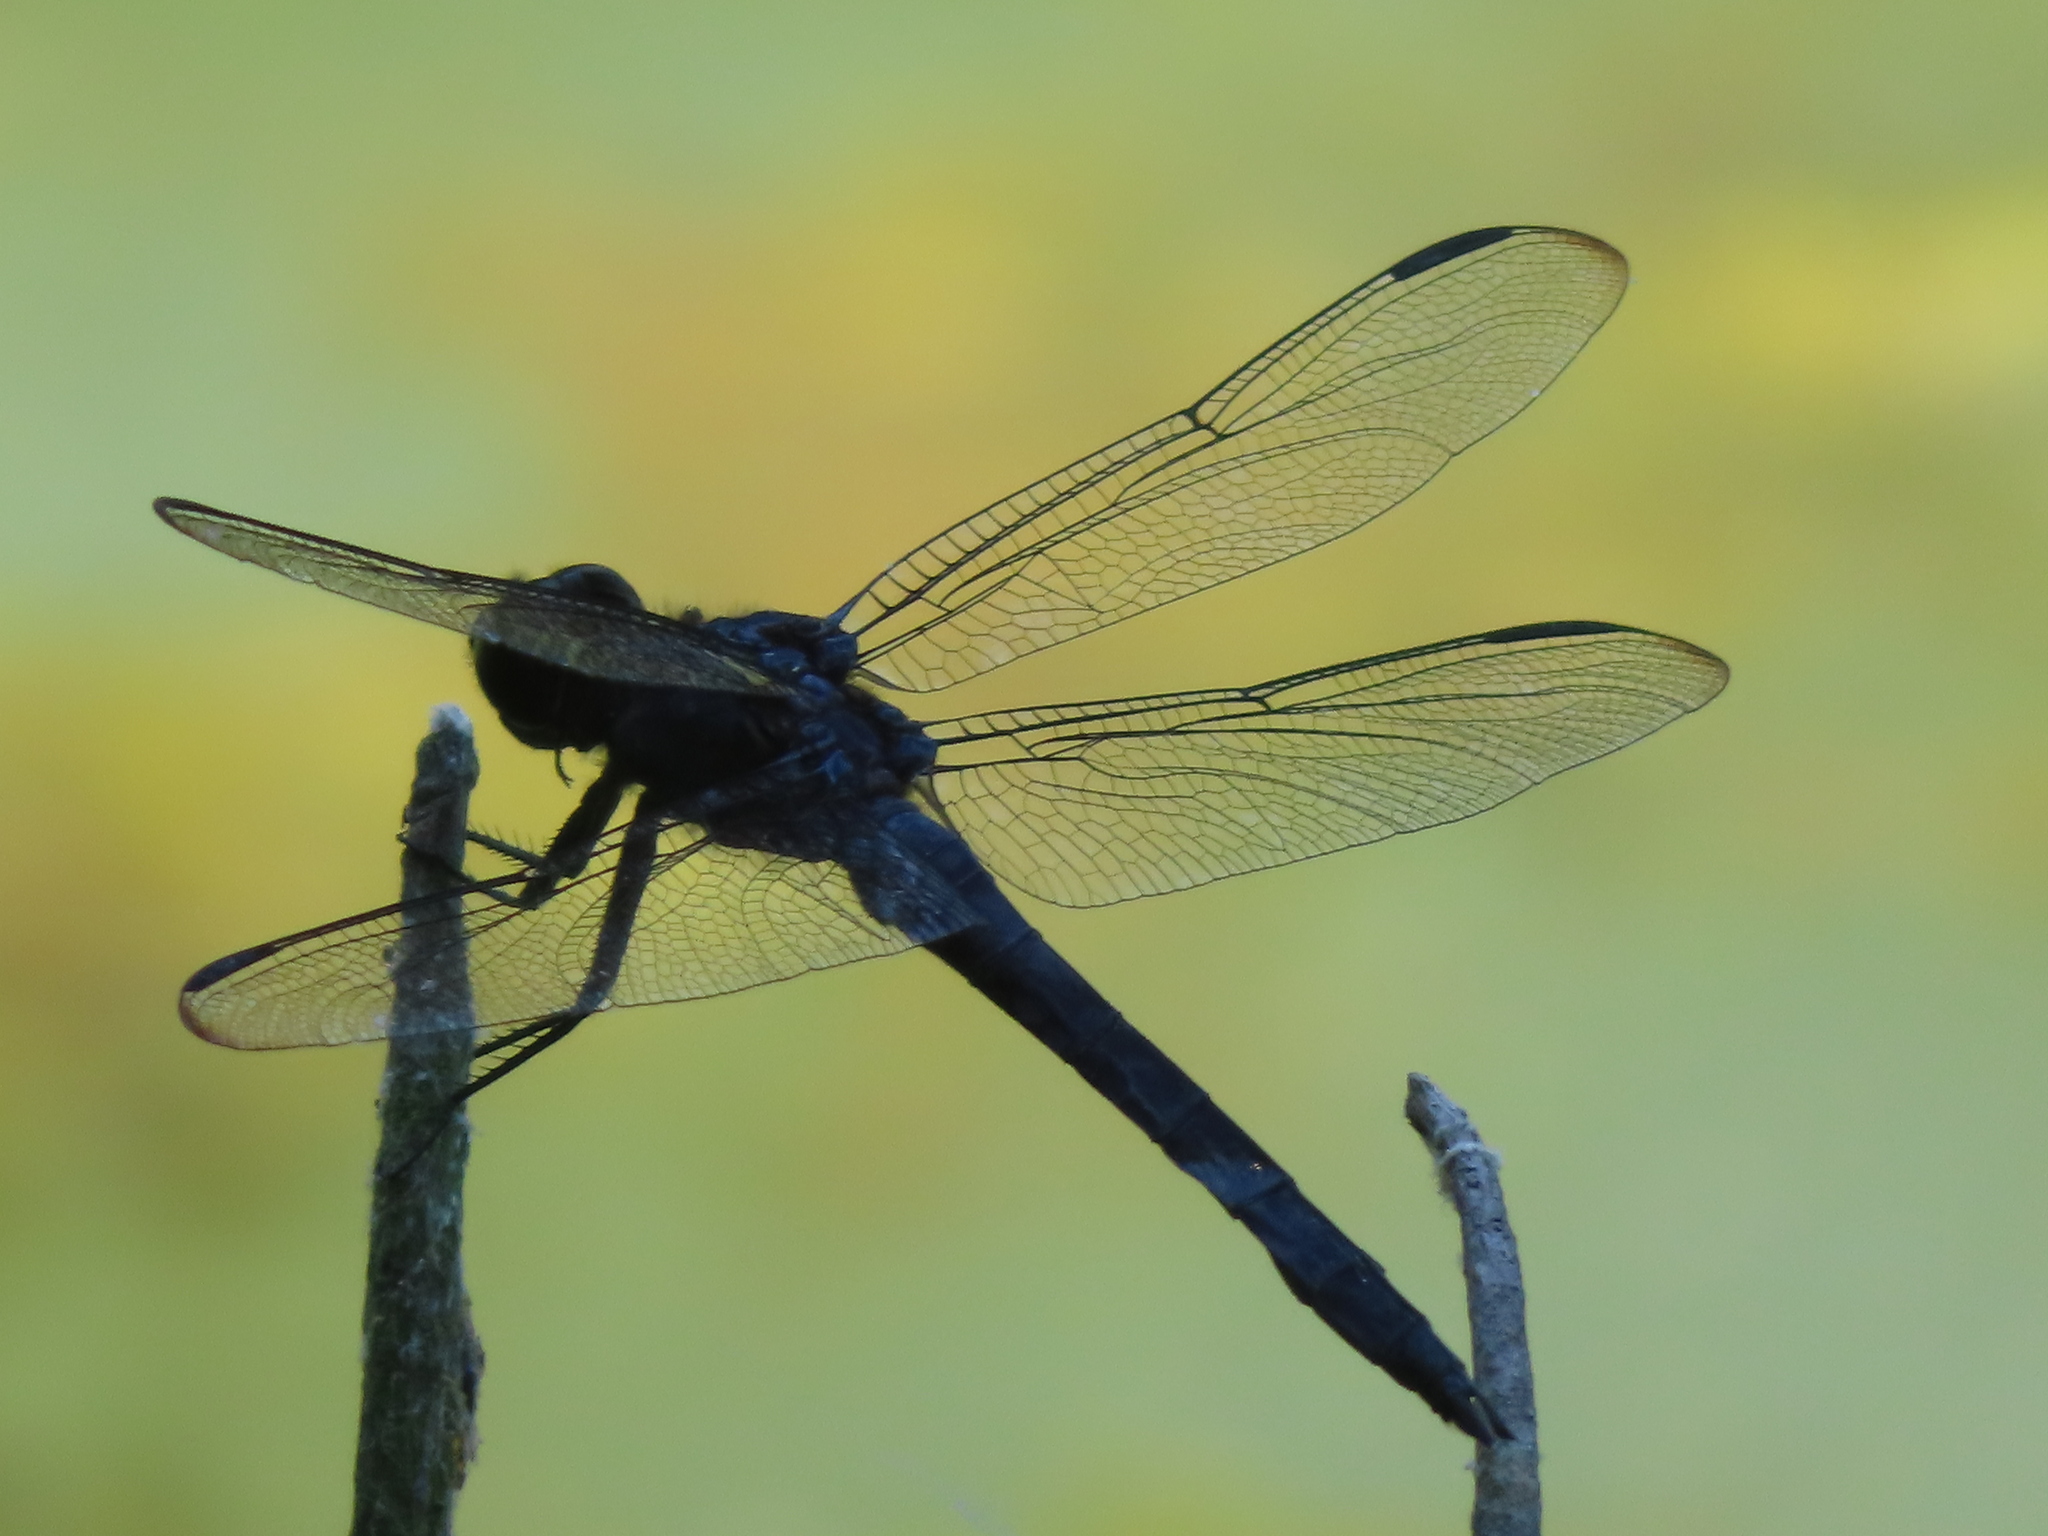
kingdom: Animalia
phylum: Arthropoda
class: Insecta
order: Odonata
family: Libellulidae
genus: Libellula
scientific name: Libellula incesta
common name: Slaty skimmer
